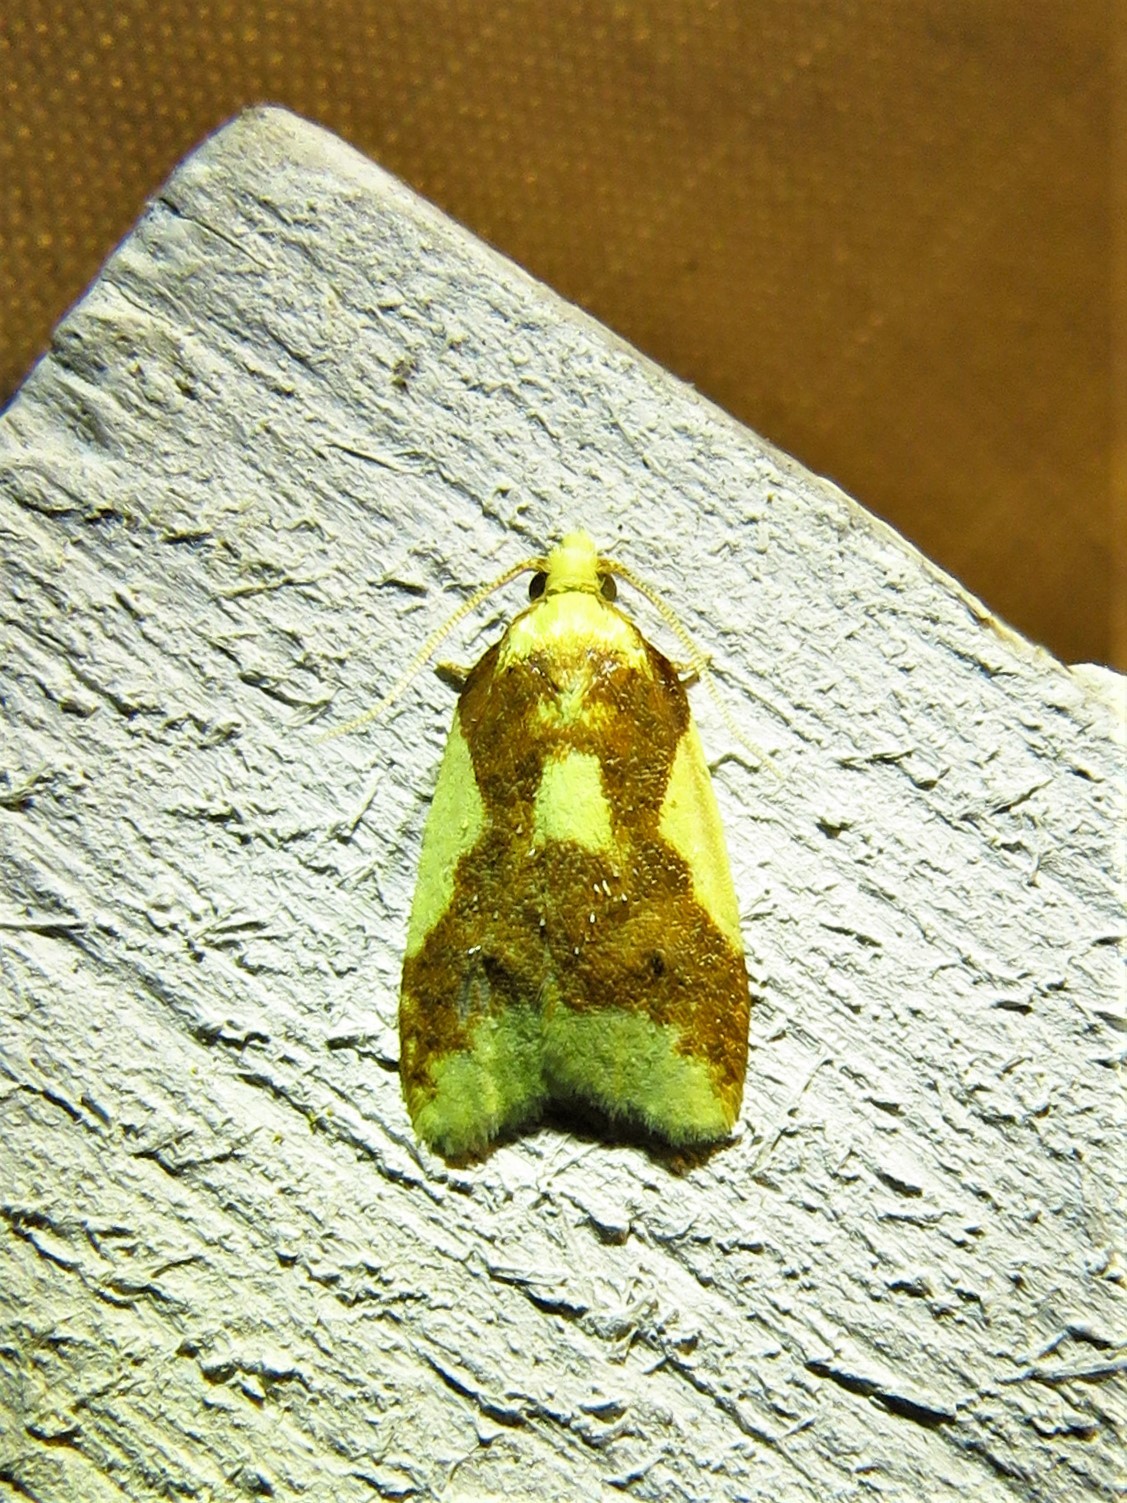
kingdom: Animalia
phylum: Arthropoda
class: Insecta
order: Lepidoptera
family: Tortricidae
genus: Sparganothis
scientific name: Sparganothis pulcherrimana
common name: Beautiful sparganothis
